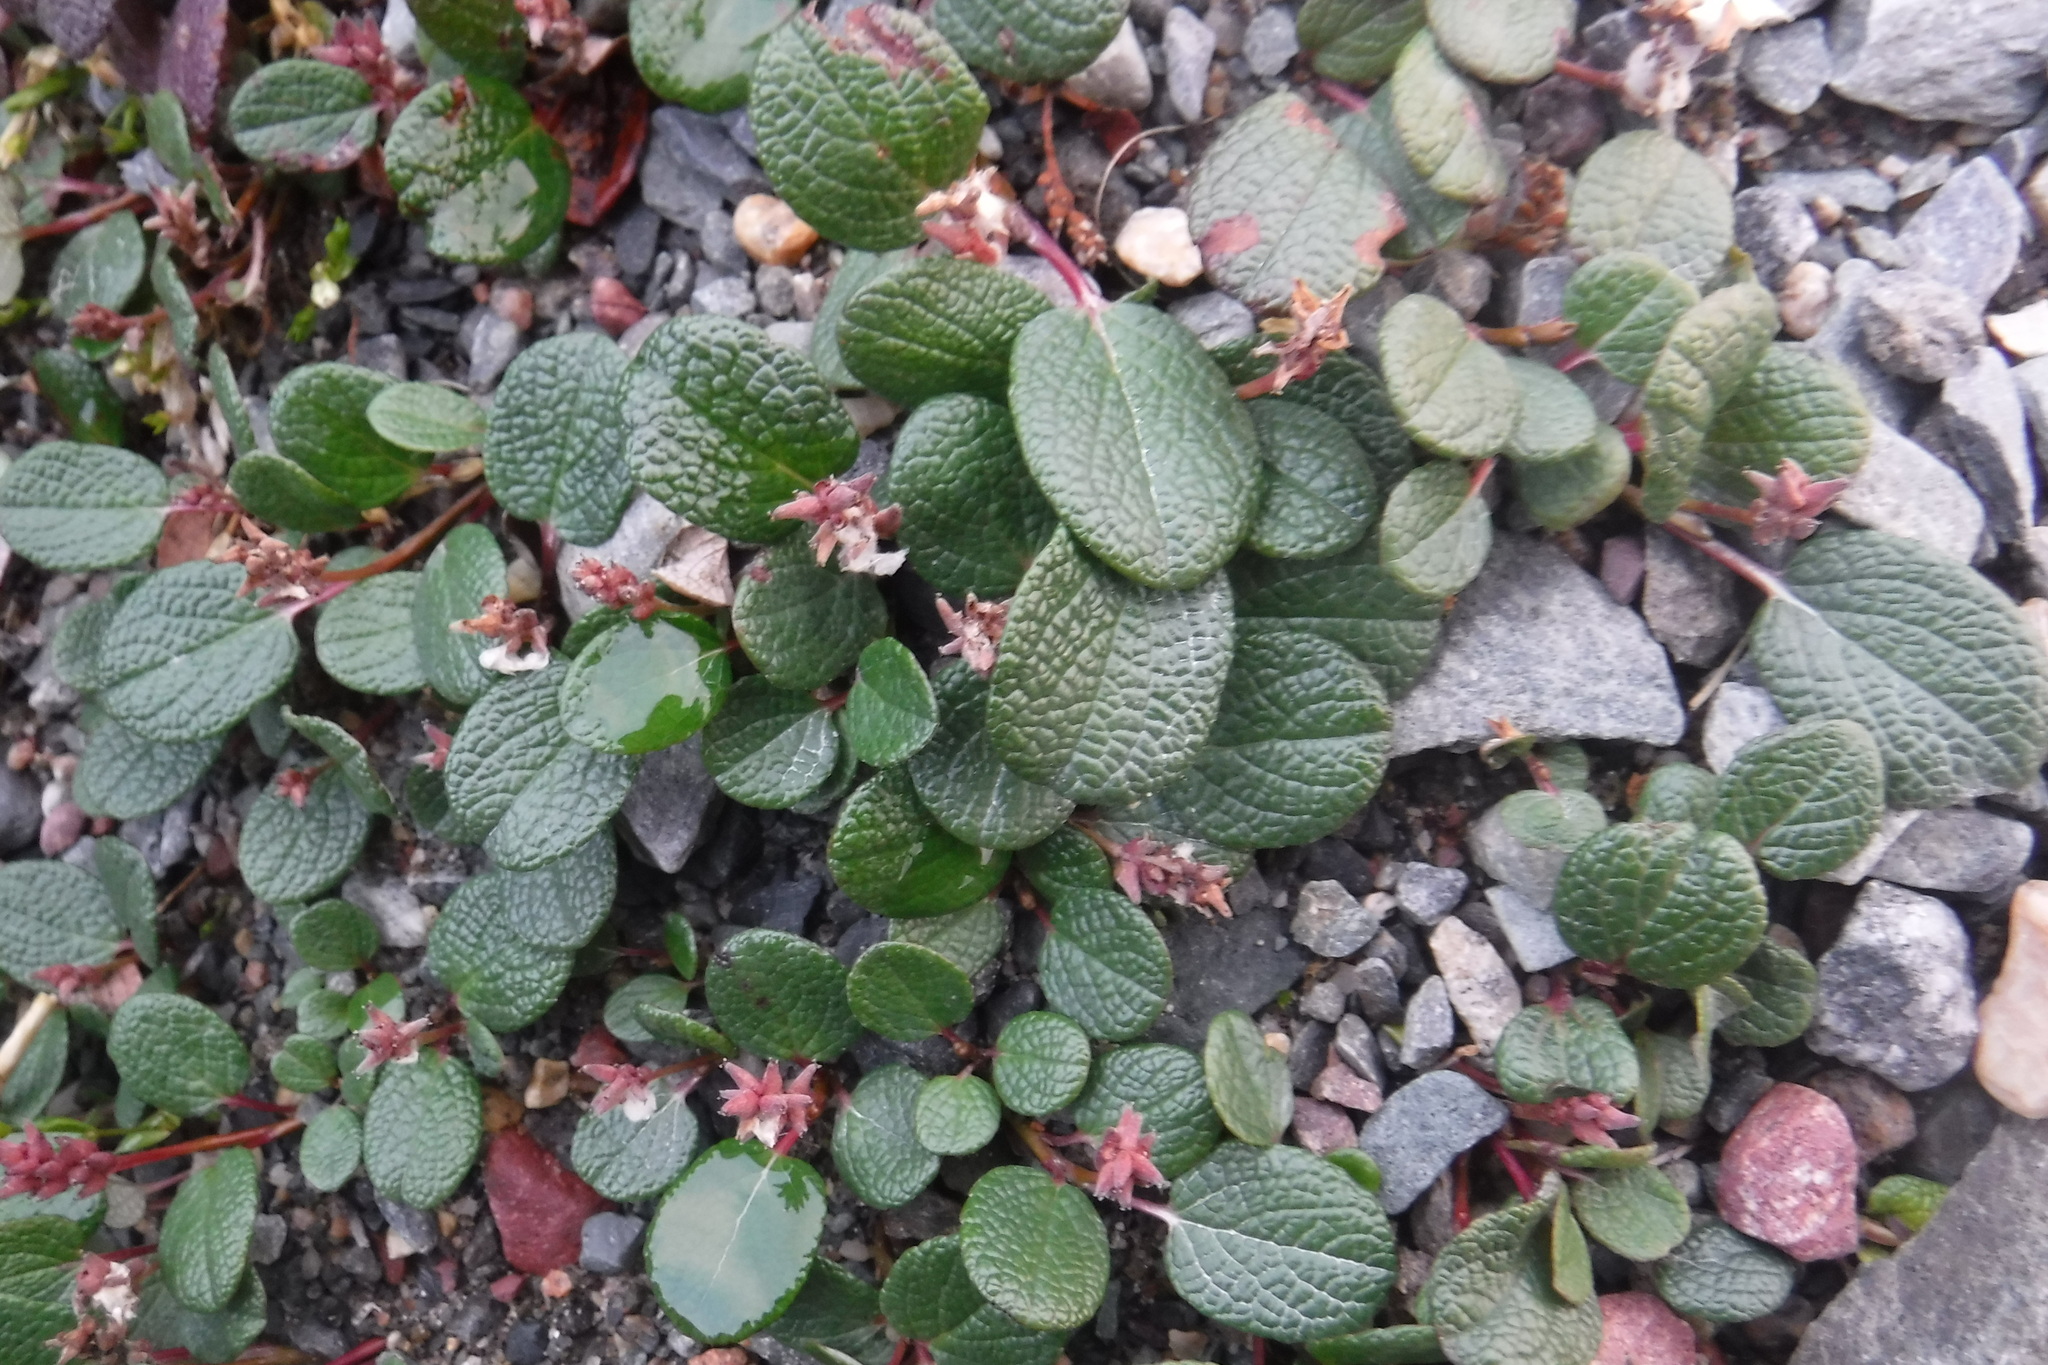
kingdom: Plantae
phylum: Tracheophyta
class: Magnoliopsida
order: Malpighiales
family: Salicaceae
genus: Salix
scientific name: Salix reticulata
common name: Net-leaved willow
